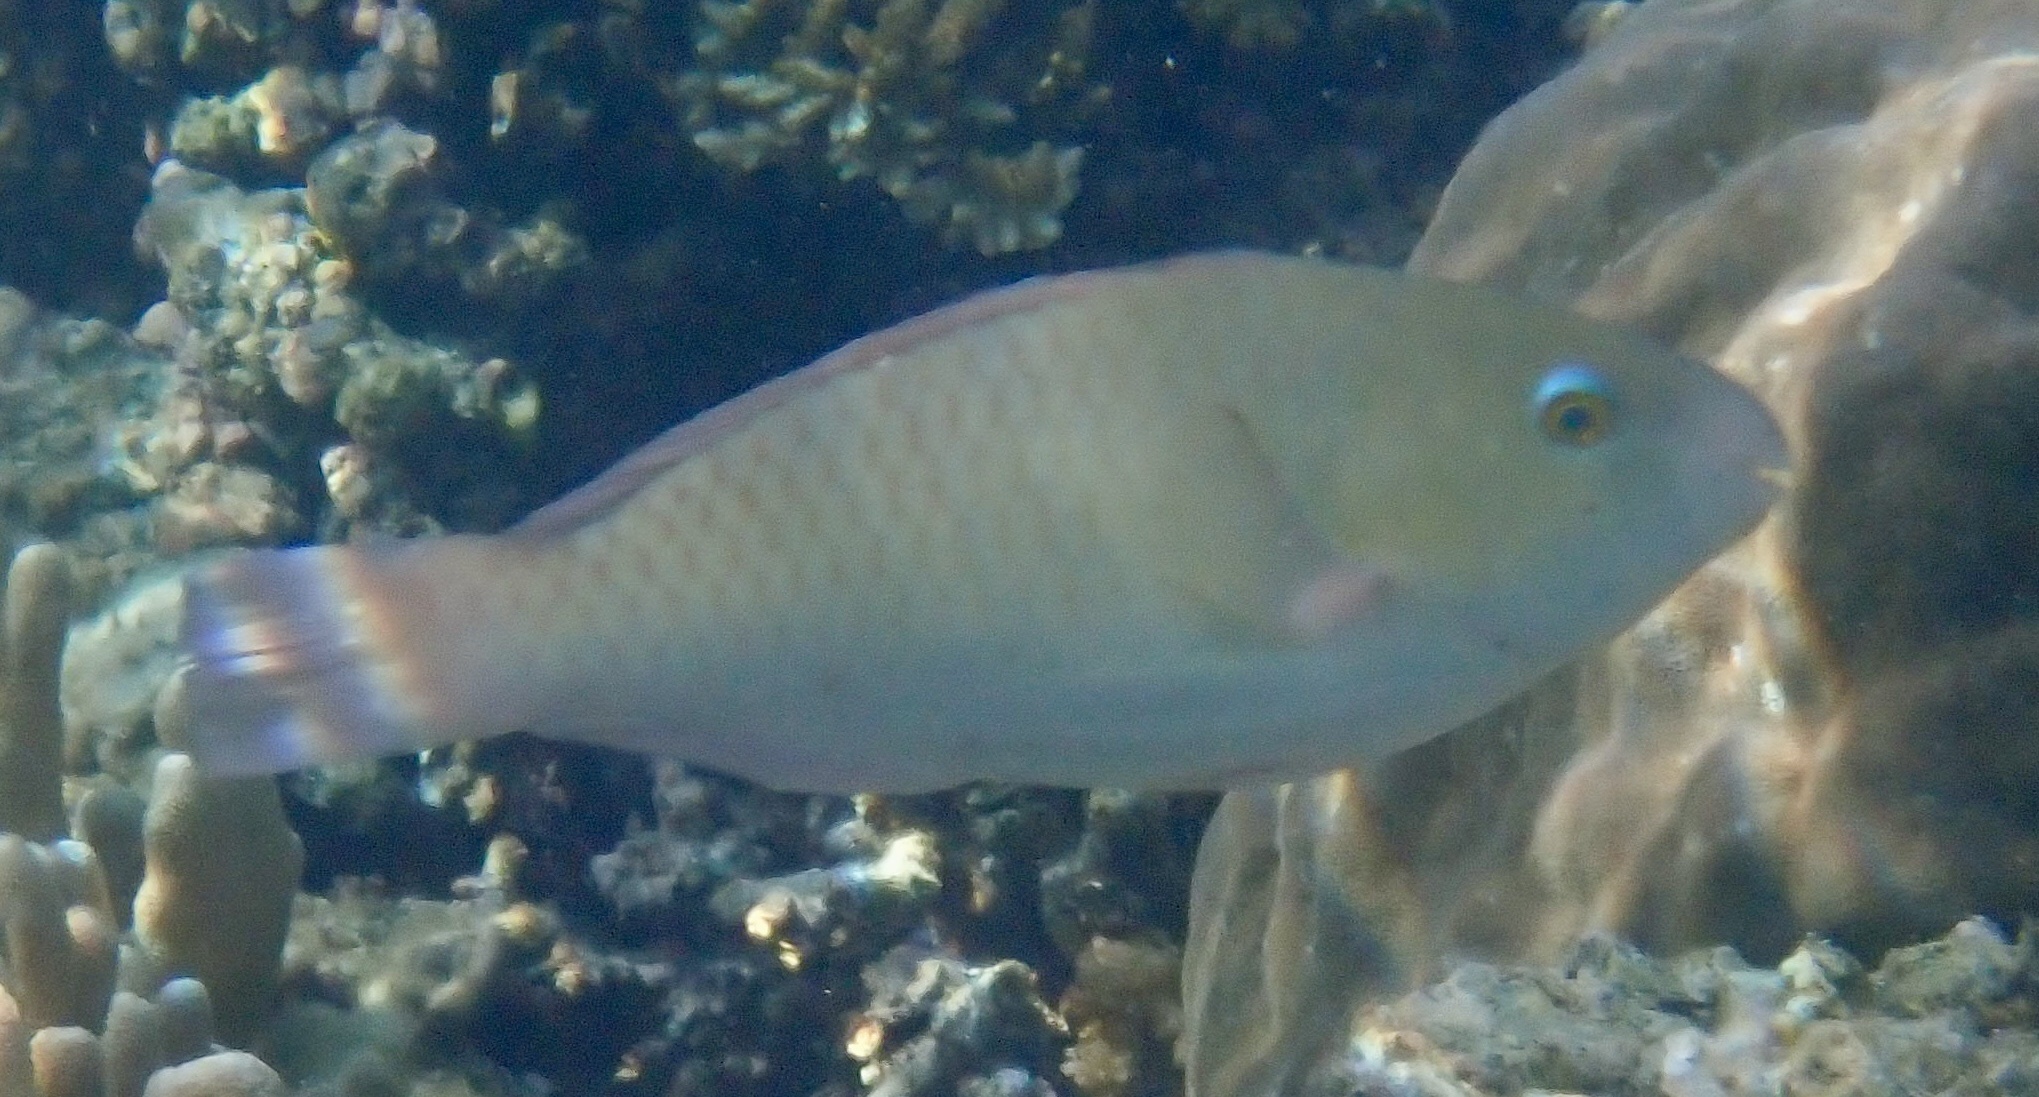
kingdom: Animalia
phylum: Chordata
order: Perciformes
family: Scaridae
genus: Scarus
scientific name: Scarus rivulatus
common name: Surf parrotfish
